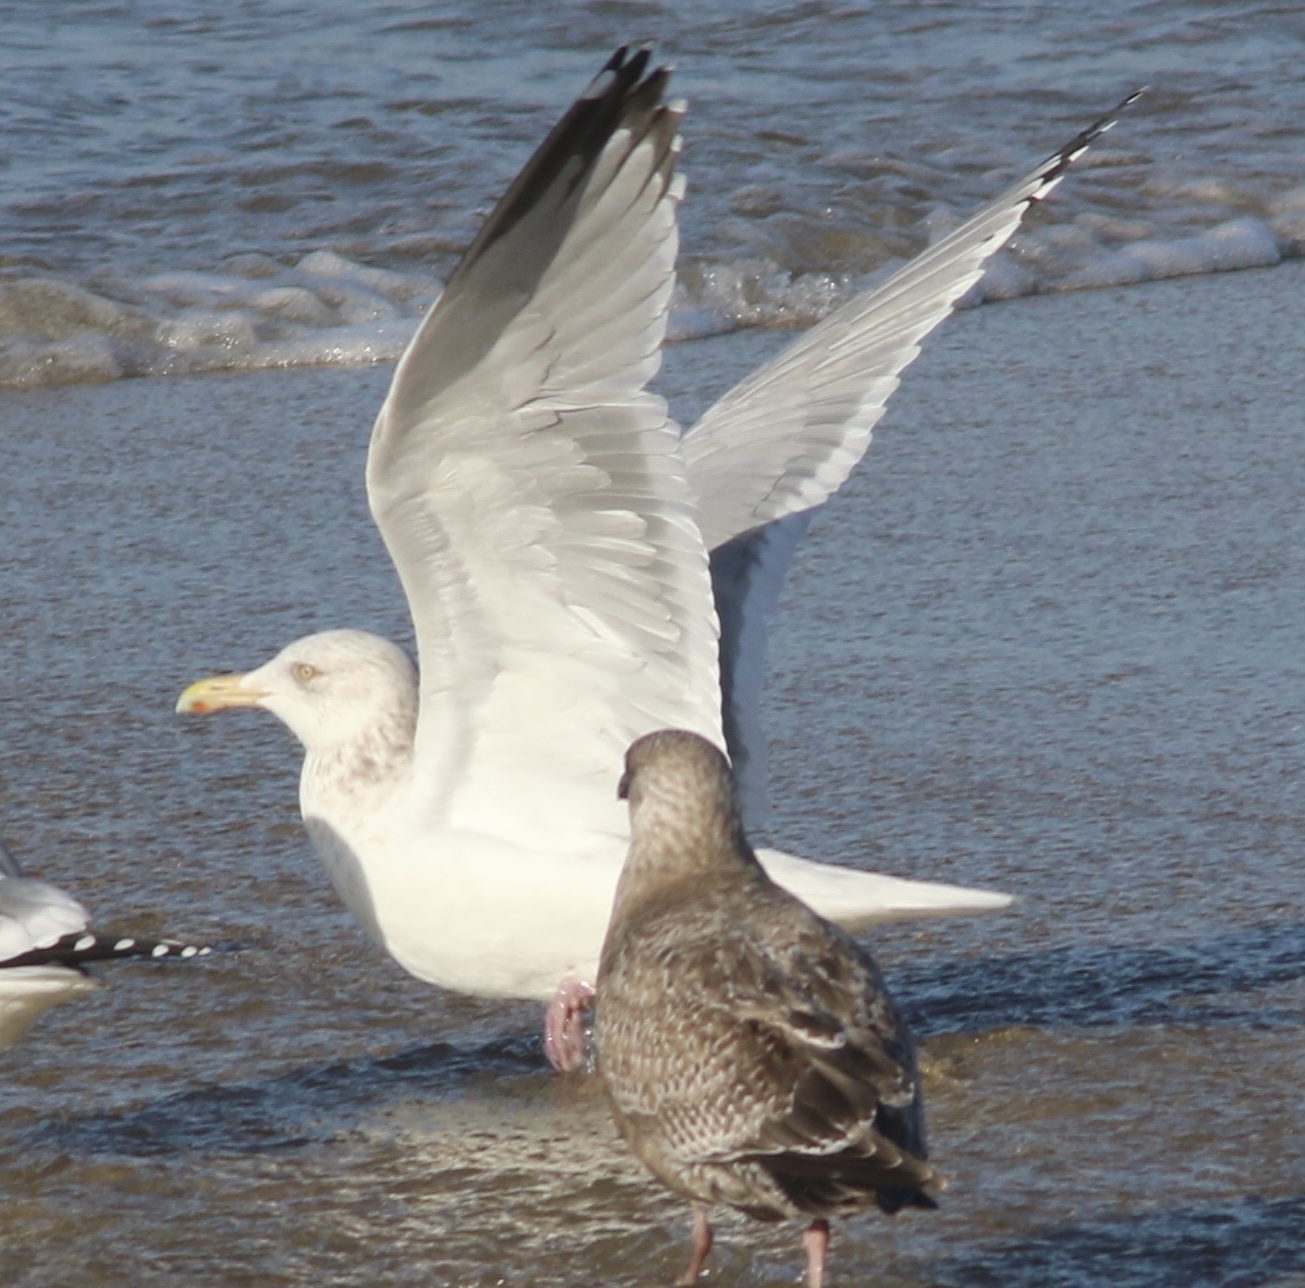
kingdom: Animalia
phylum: Chordata
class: Aves
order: Charadriiformes
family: Laridae
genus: Larus
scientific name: Larus argentatus
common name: Herring gull
